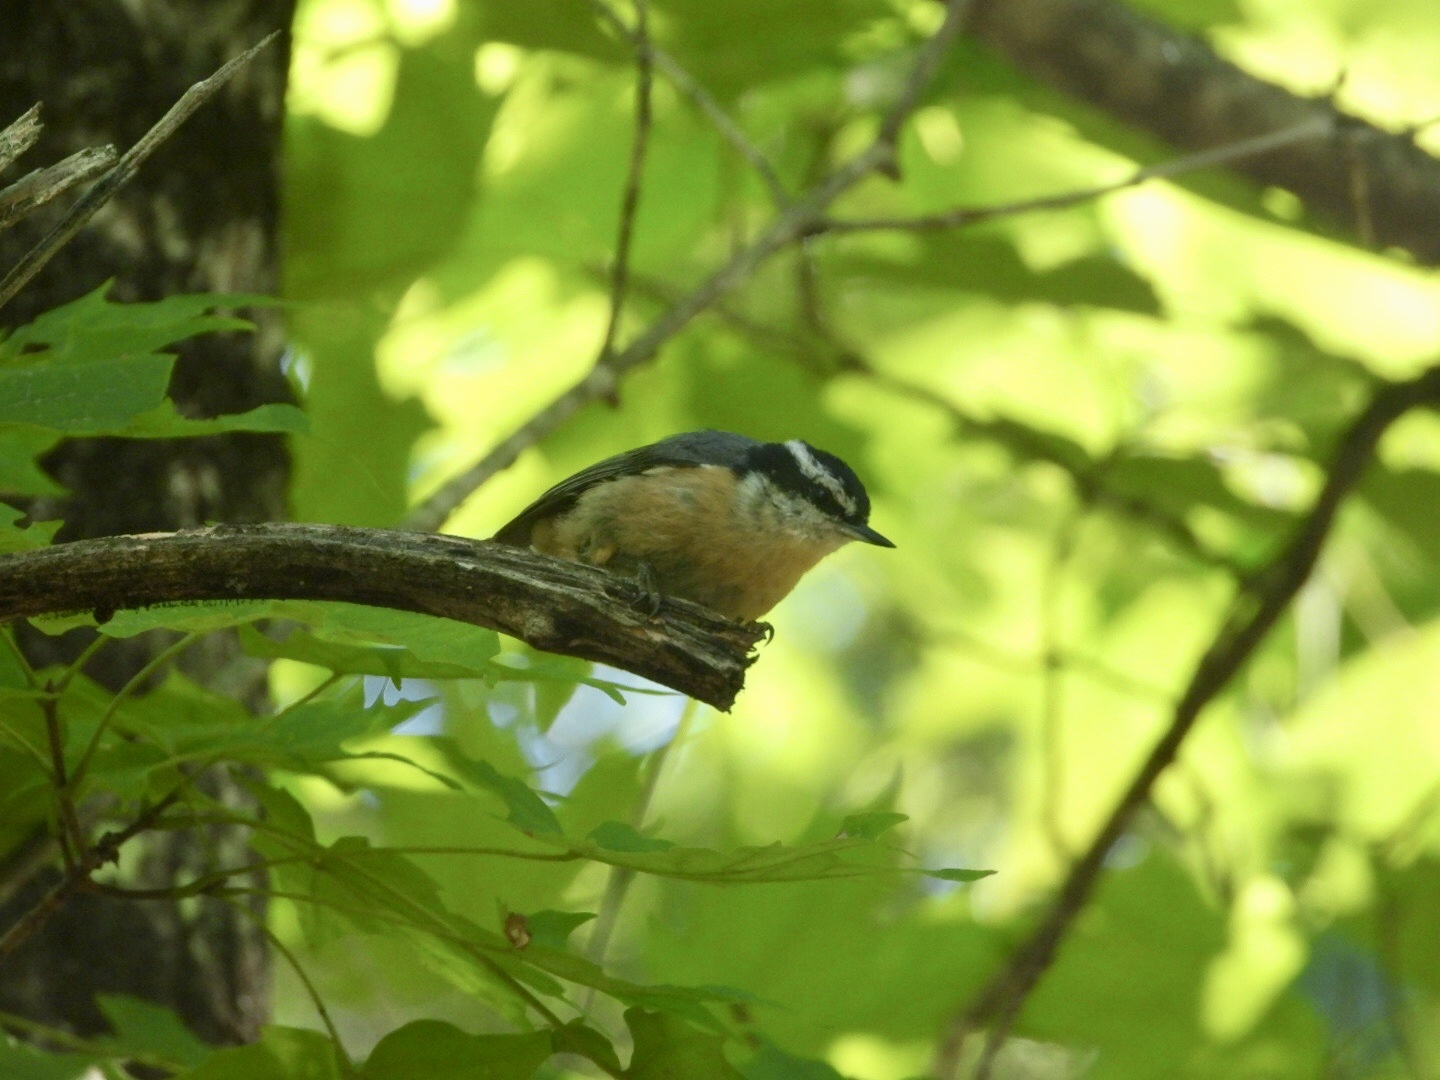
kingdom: Animalia
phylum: Chordata
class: Aves
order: Passeriformes
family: Sittidae
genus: Sitta
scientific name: Sitta canadensis
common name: Red-breasted nuthatch
